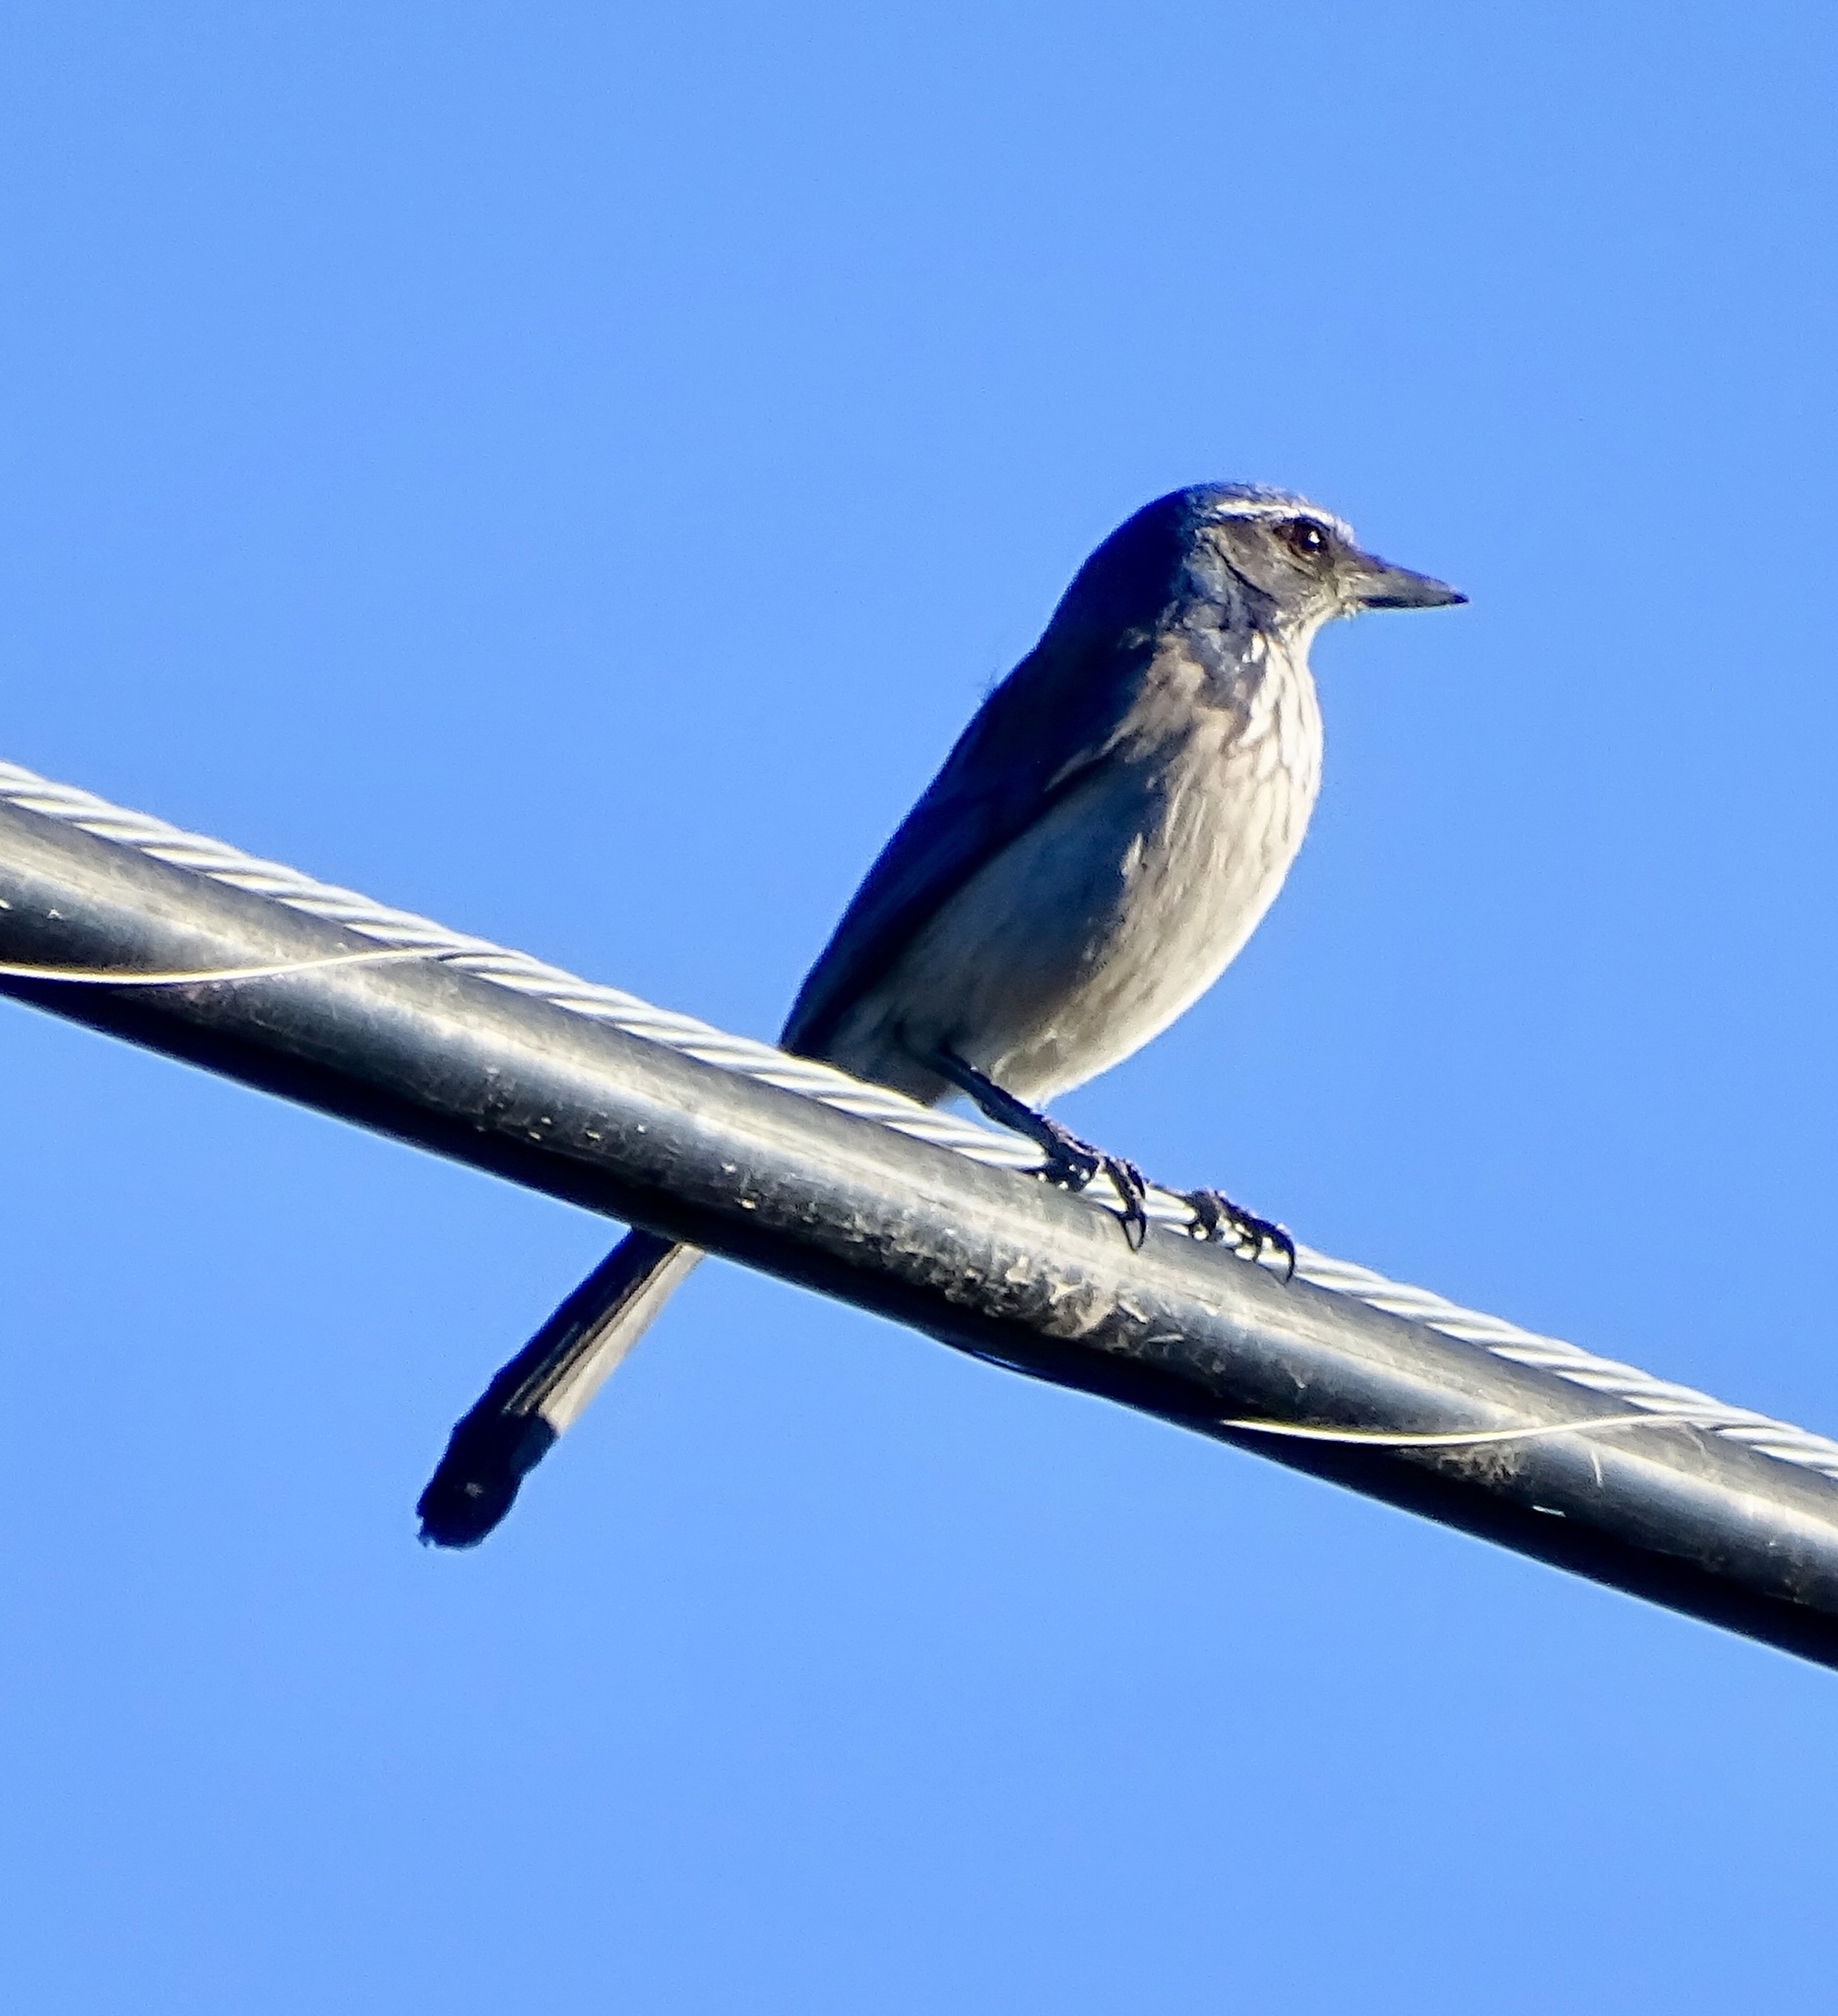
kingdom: Animalia
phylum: Chordata
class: Aves
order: Passeriformes
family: Corvidae
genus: Aphelocoma
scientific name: Aphelocoma californica
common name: California scrub-jay
